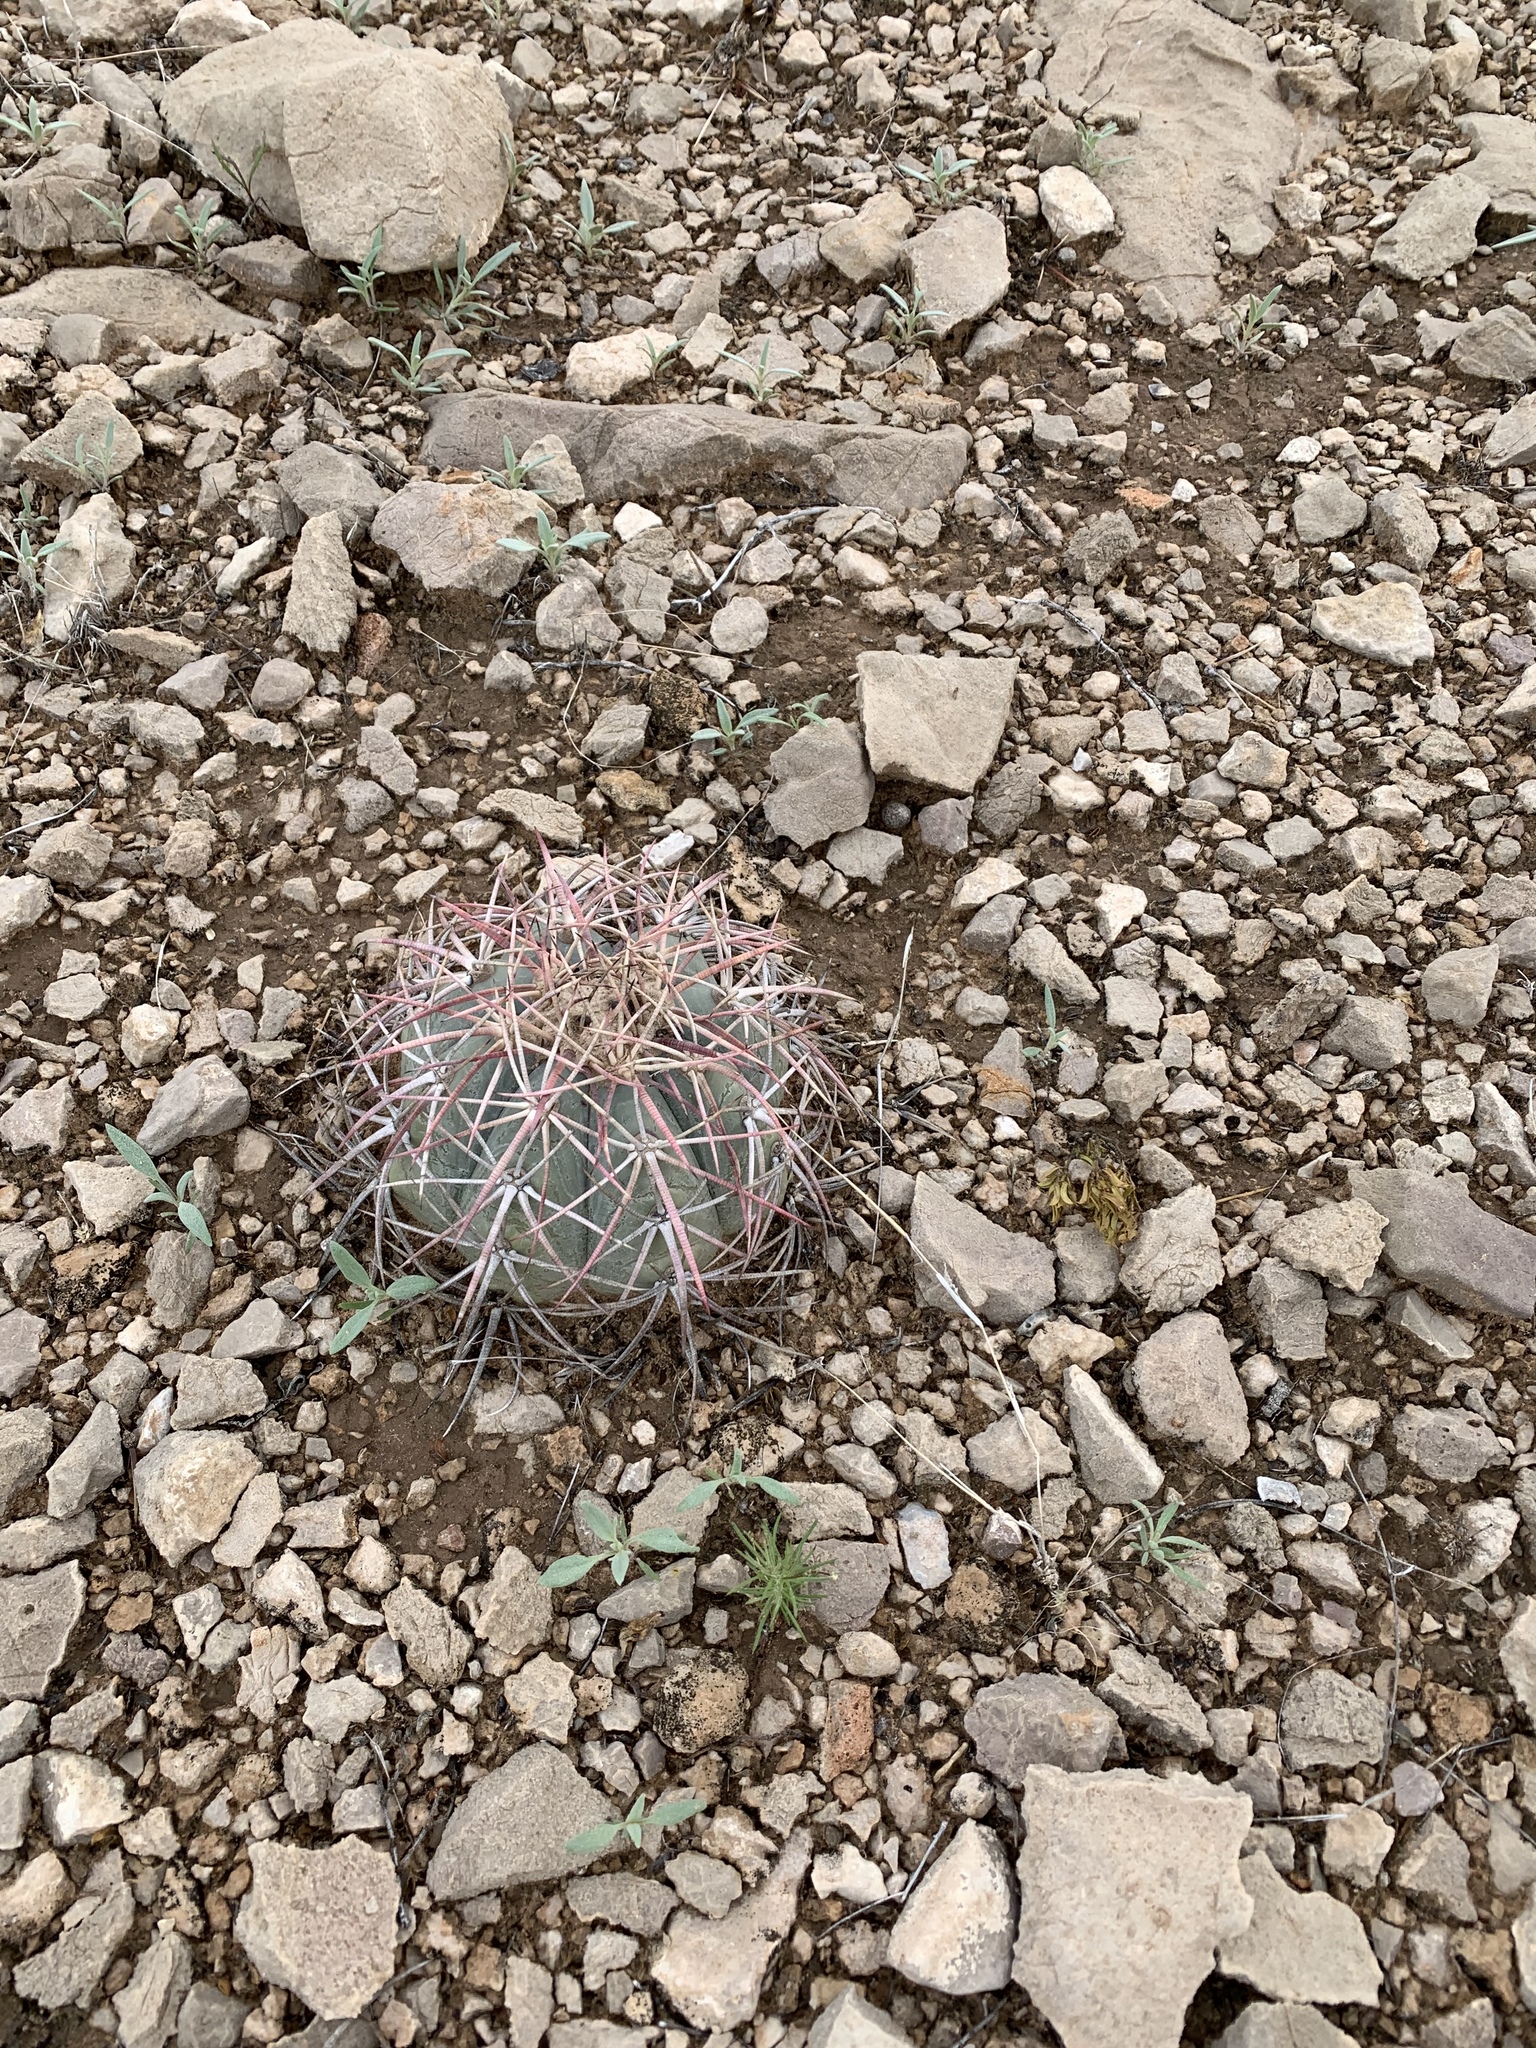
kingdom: Plantae
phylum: Tracheophyta
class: Magnoliopsida
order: Caryophyllales
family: Cactaceae
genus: Echinocactus
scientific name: Echinocactus horizonthalonius
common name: Devilshead
